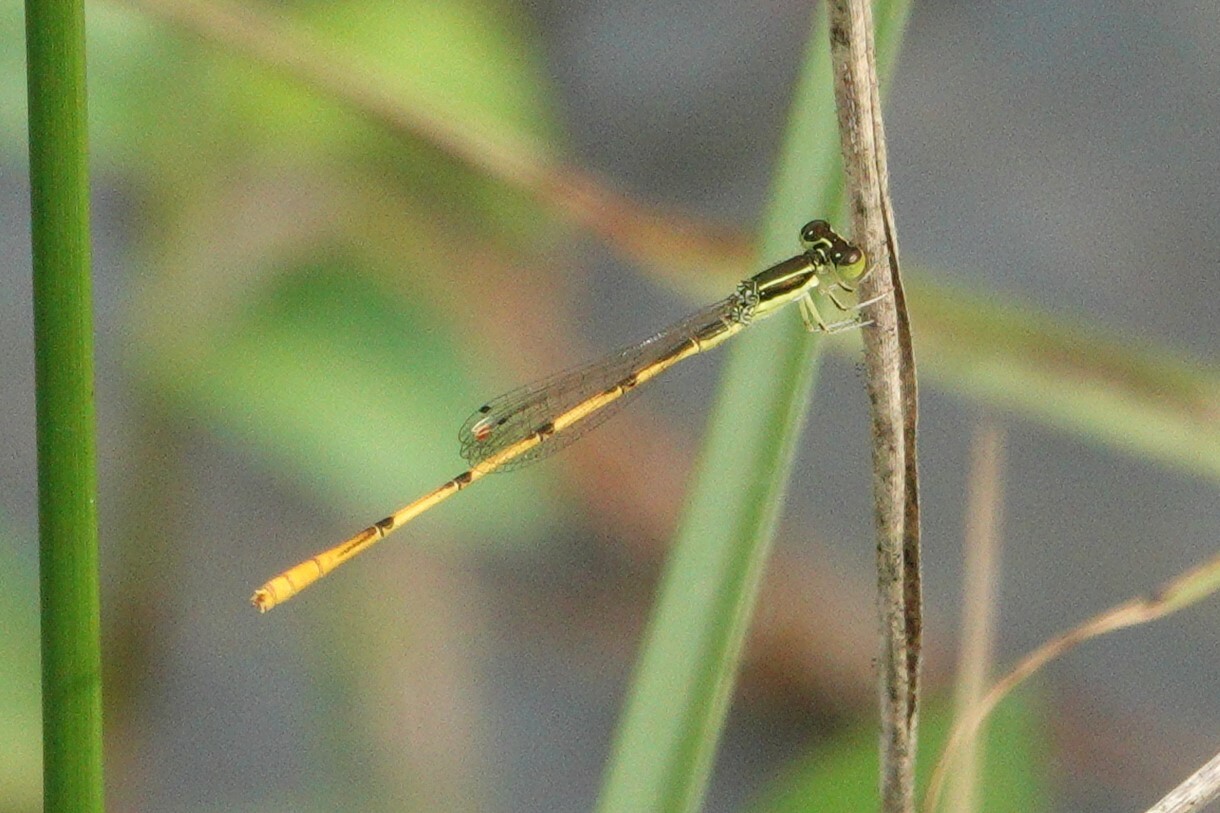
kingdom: Animalia
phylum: Arthropoda
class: Insecta
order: Odonata
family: Coenagrionidae
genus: Ischnura
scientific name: Ischnura hastata
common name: Citrine forktail
